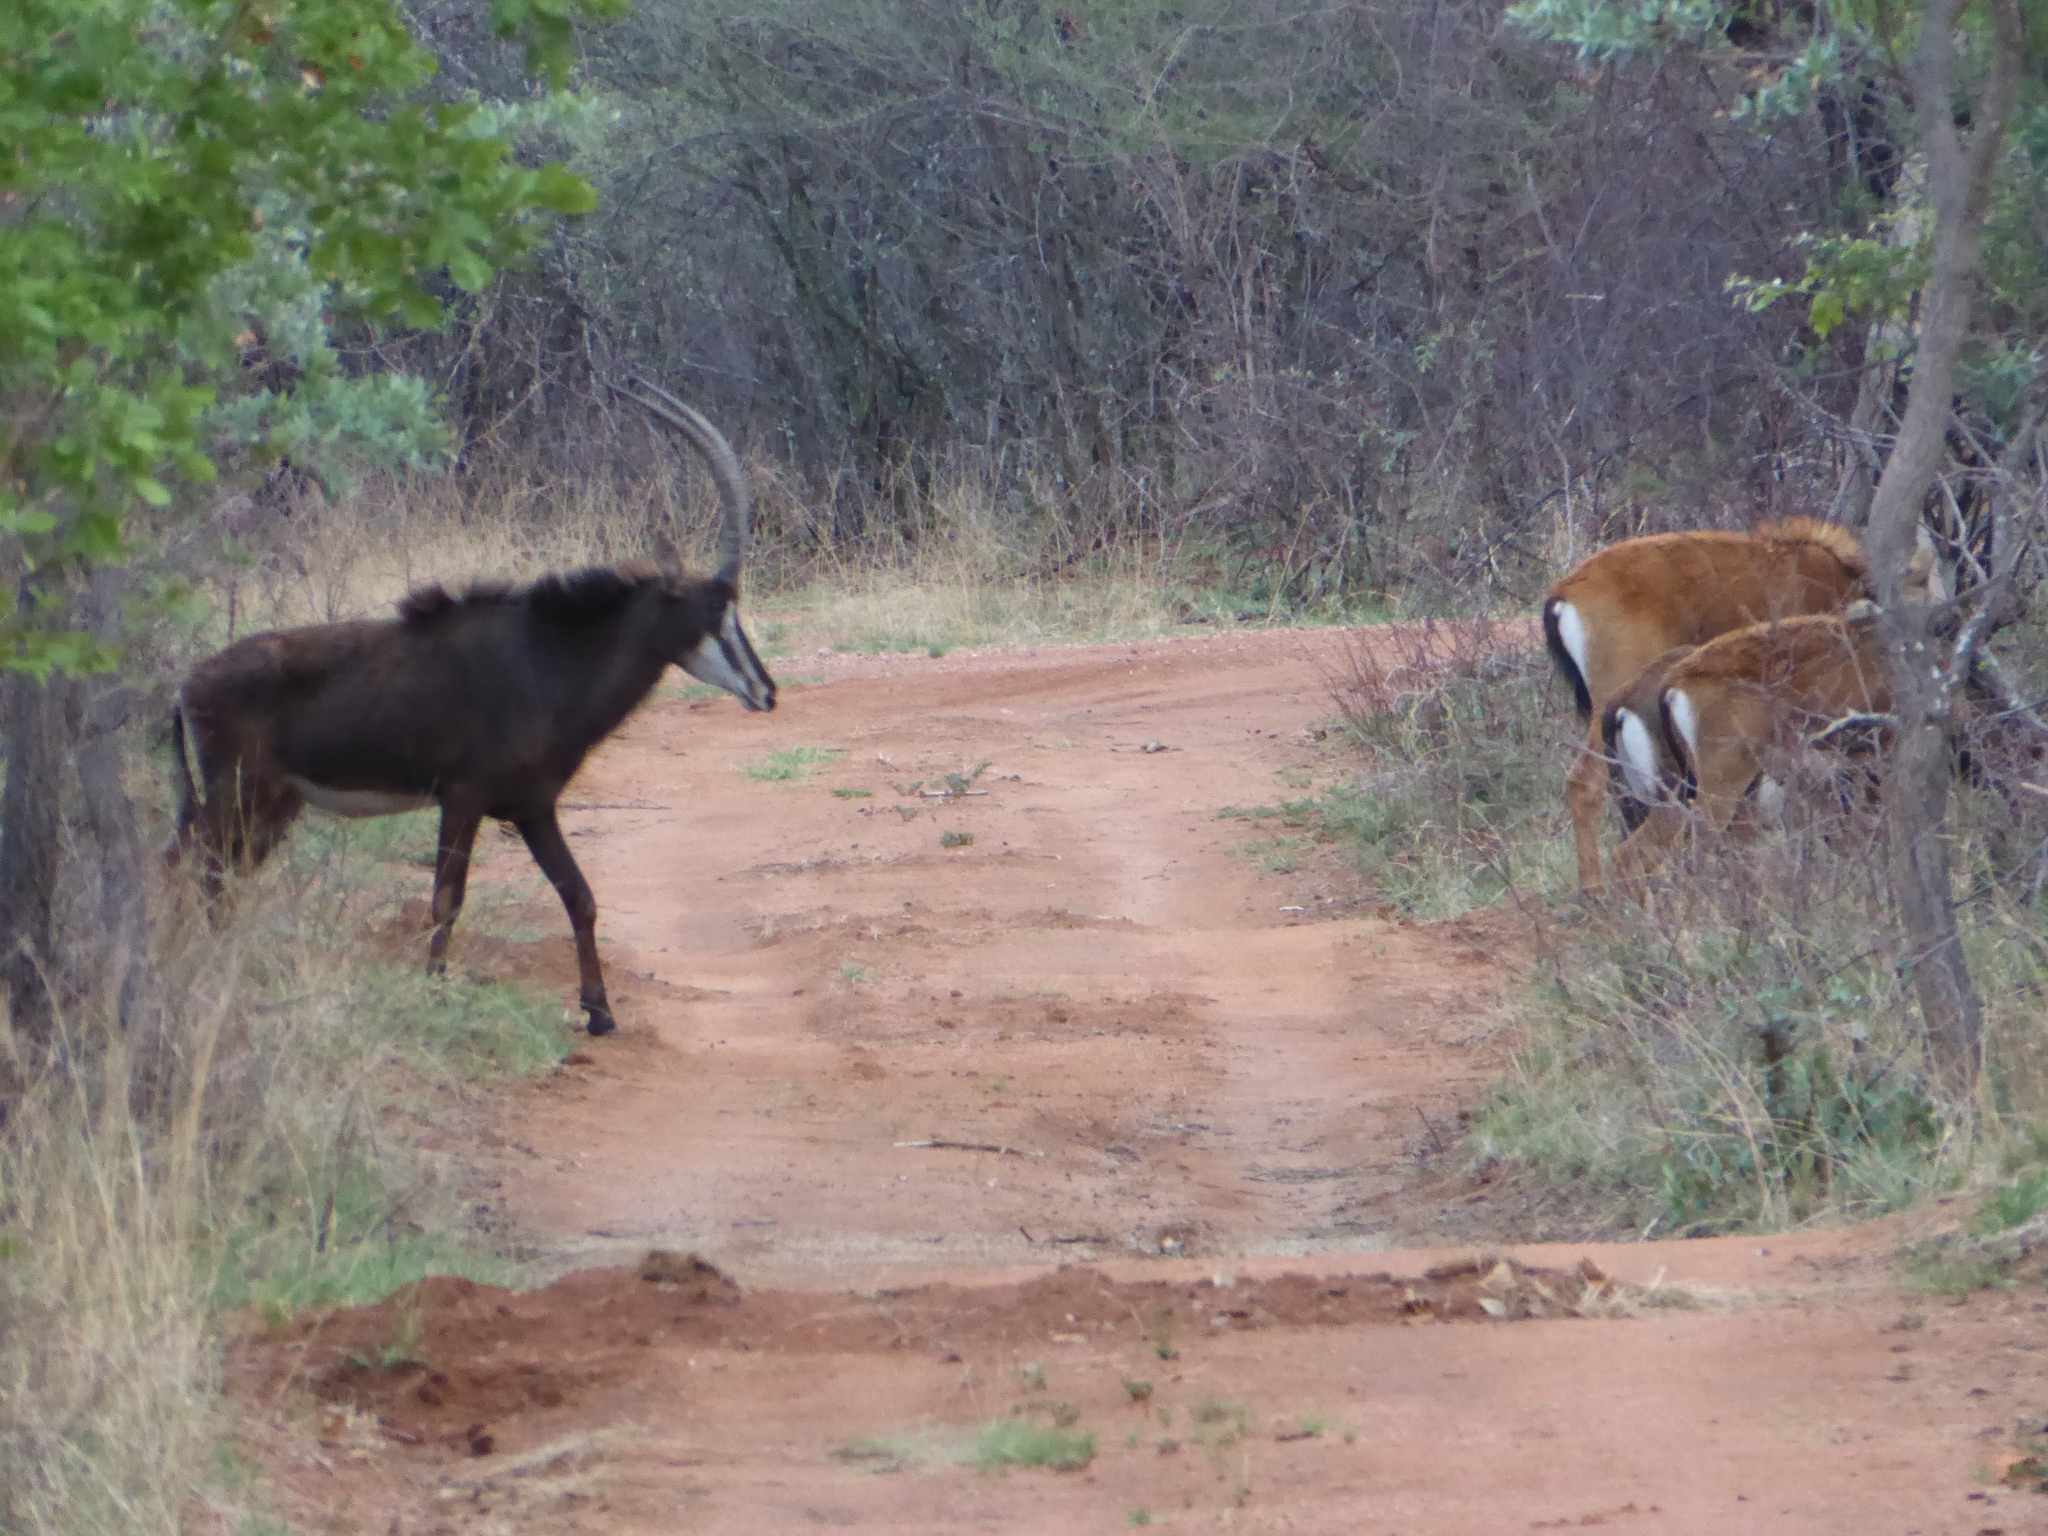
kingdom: Animalia
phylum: Chordata
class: Mammalia
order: Artiodactyla
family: Bovidae
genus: Hippotragus
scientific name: Hippotragus niger
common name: Sable antelope
